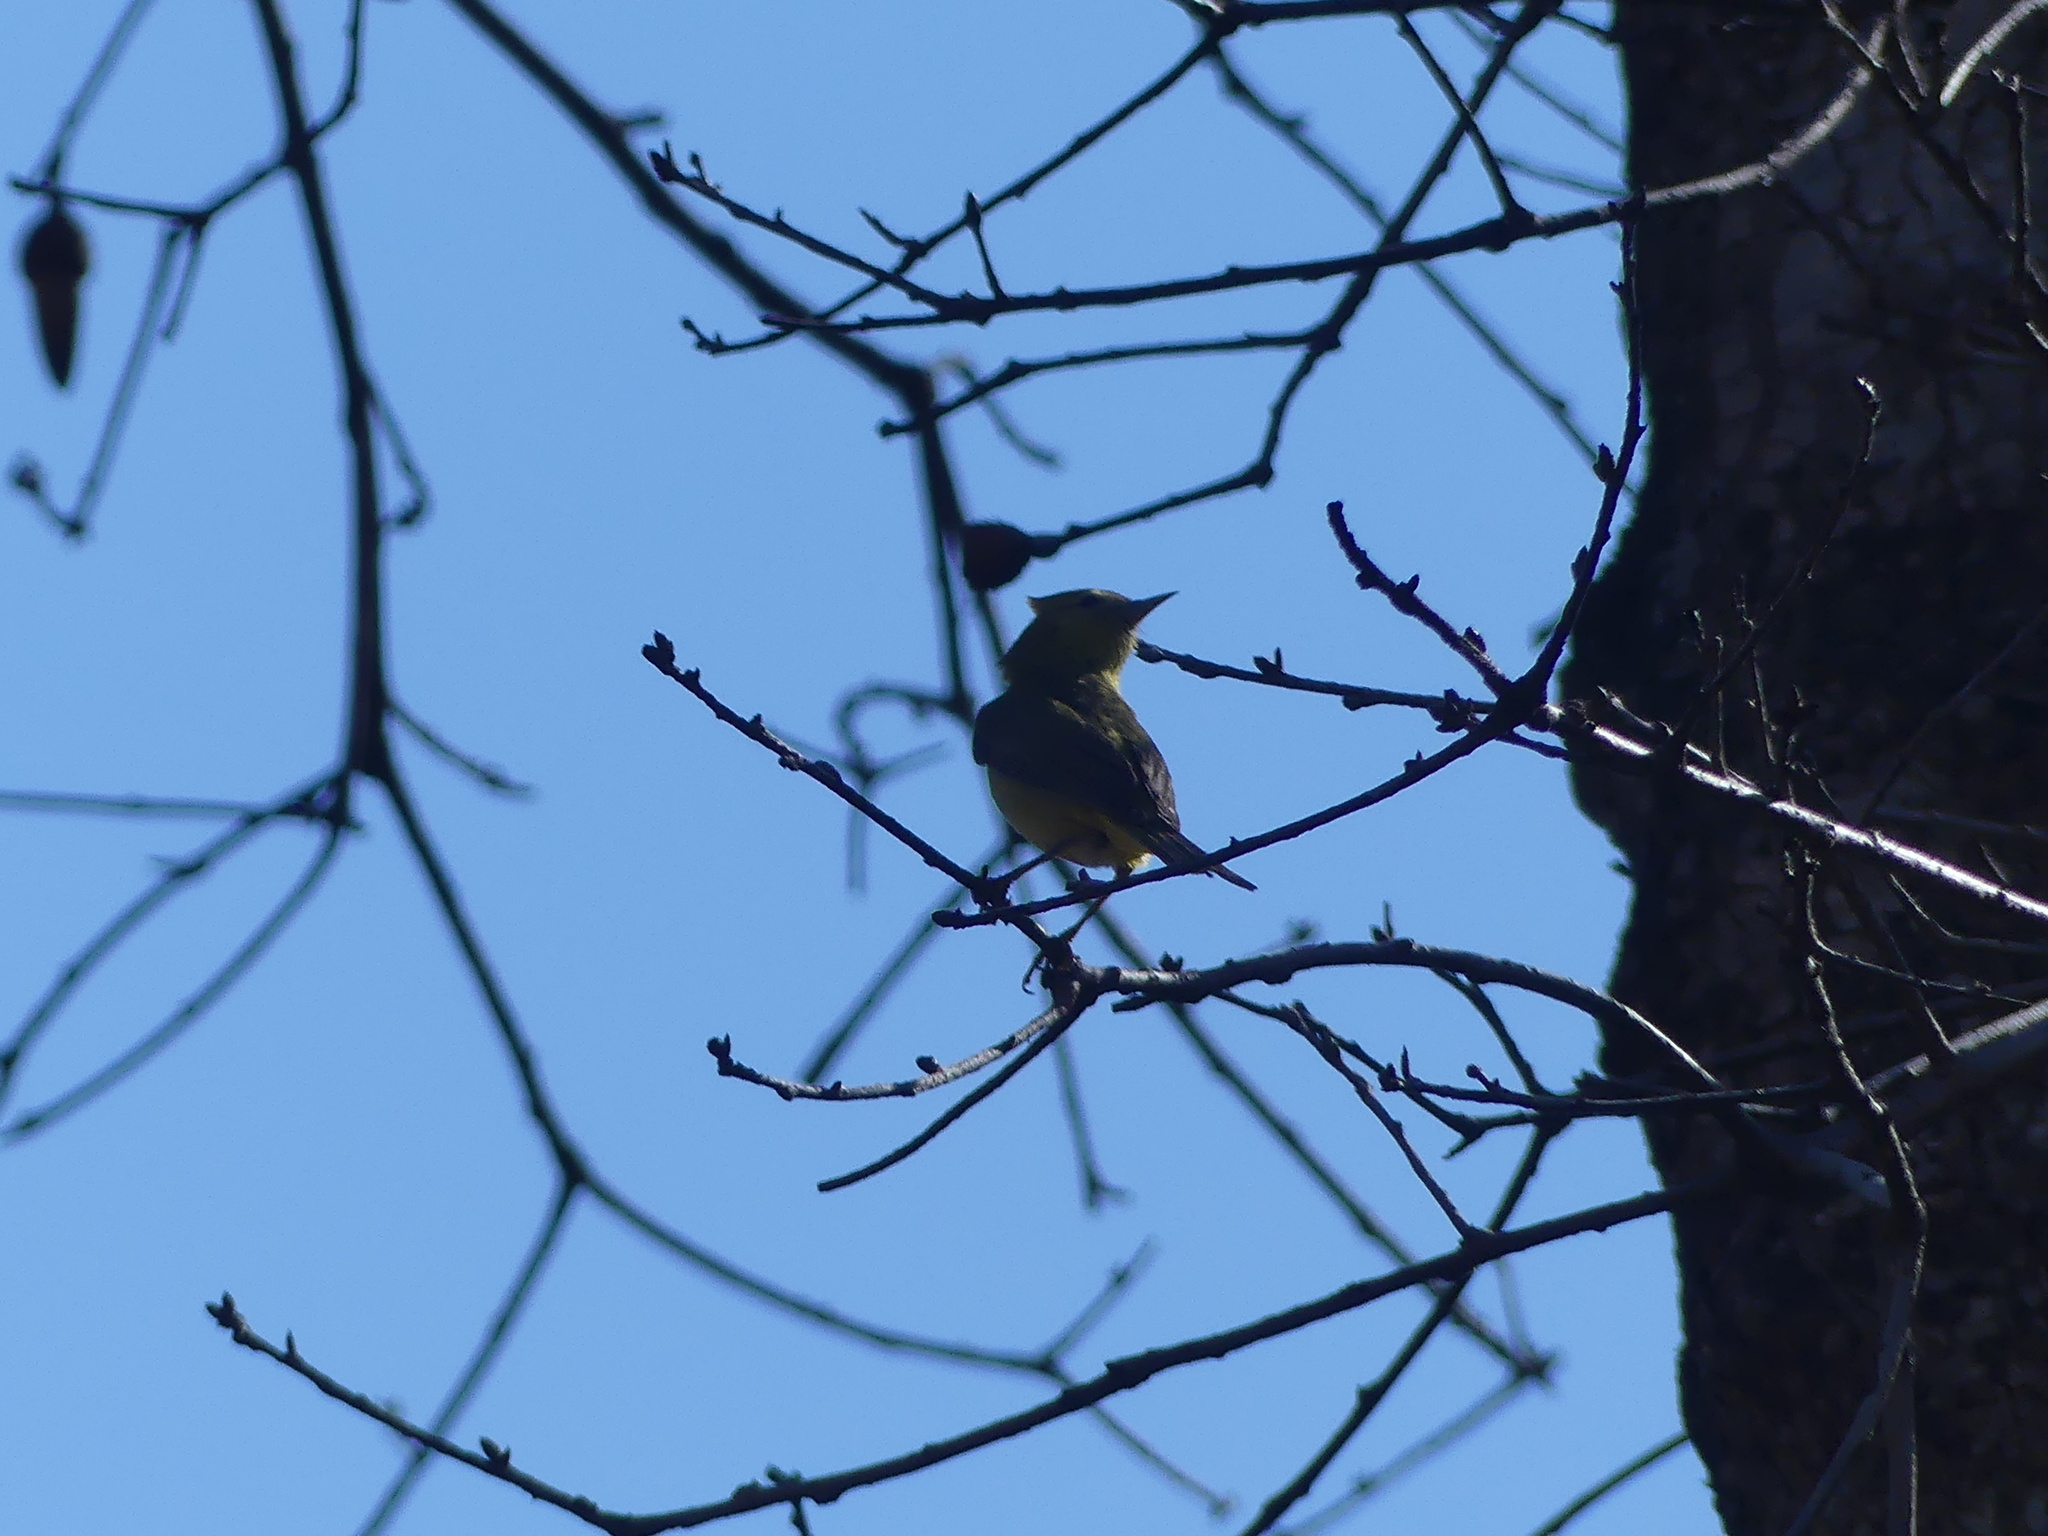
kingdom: Animalia
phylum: Chordata
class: Aves
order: Passeriformes
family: Parulidae
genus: Leiothlypis
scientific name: Leiothlypis celata
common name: Orange-crowned warbler
